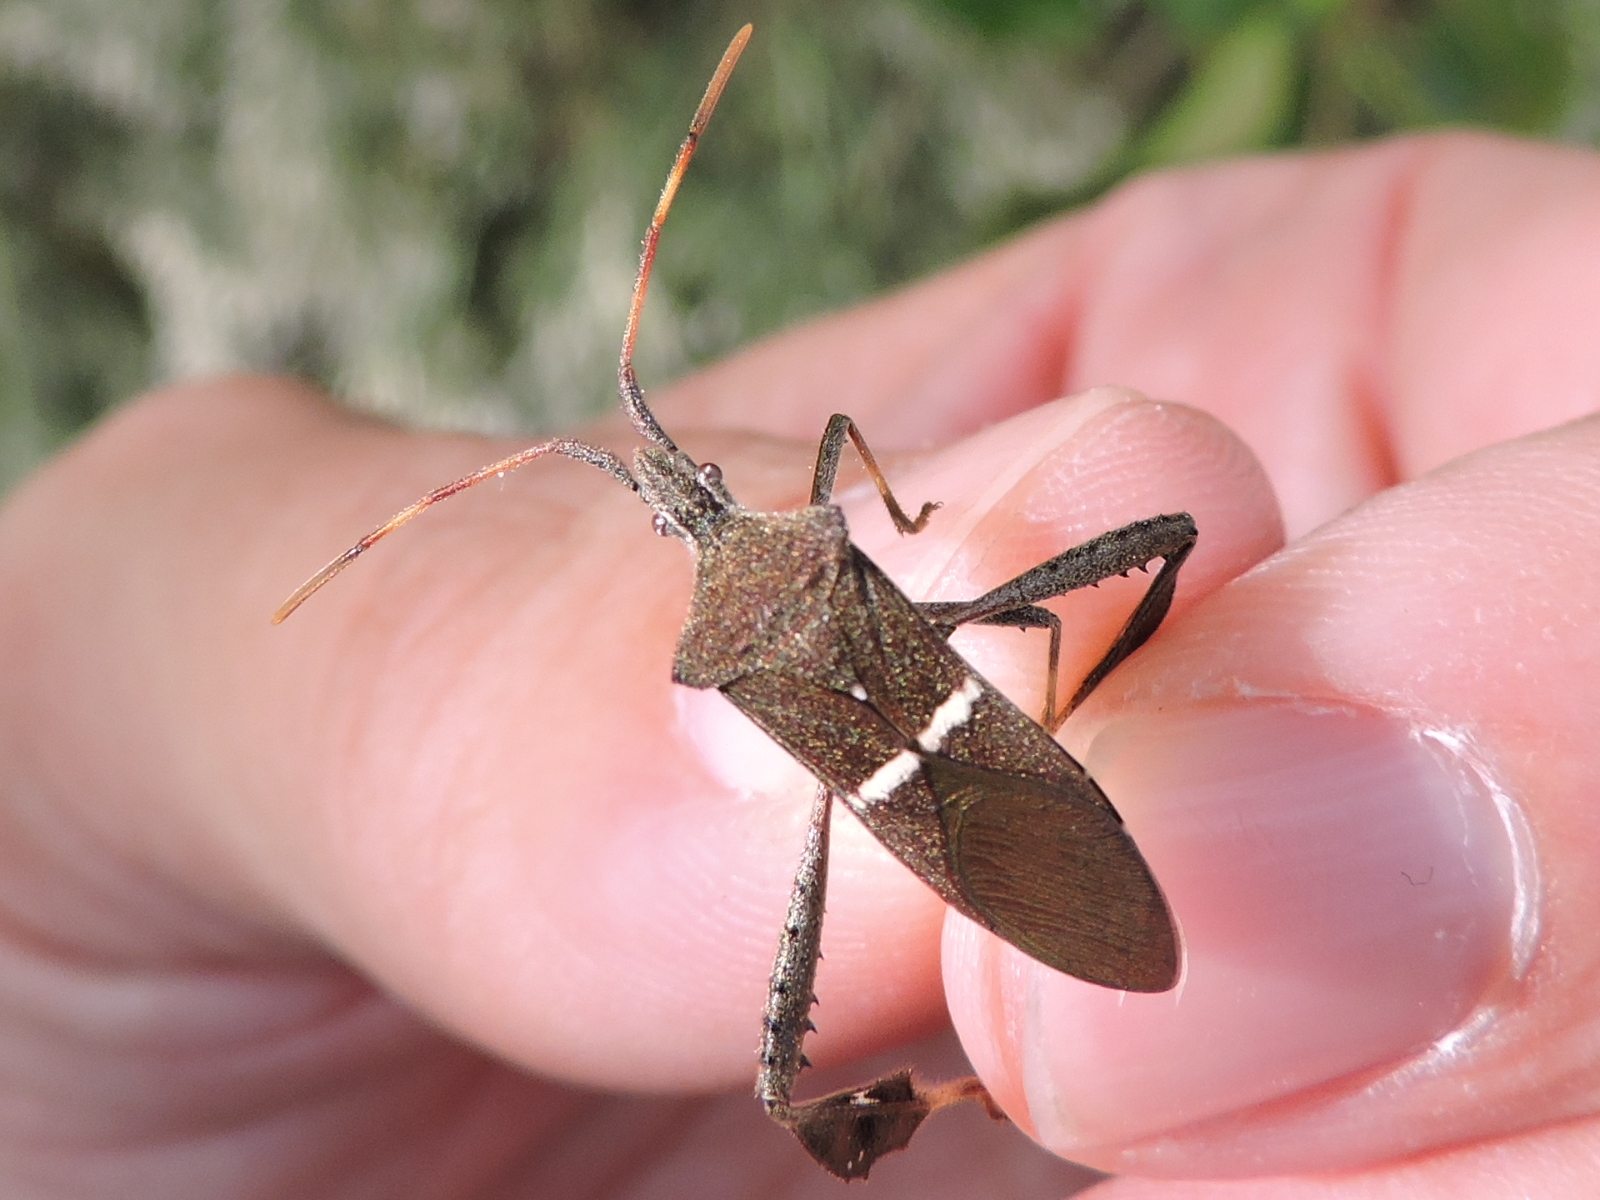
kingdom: Animalia
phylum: Arthropoda
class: Insecta
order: Hemiptera
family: Coreidae
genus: Leptoglossus
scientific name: Leptoglossus phyllopus
